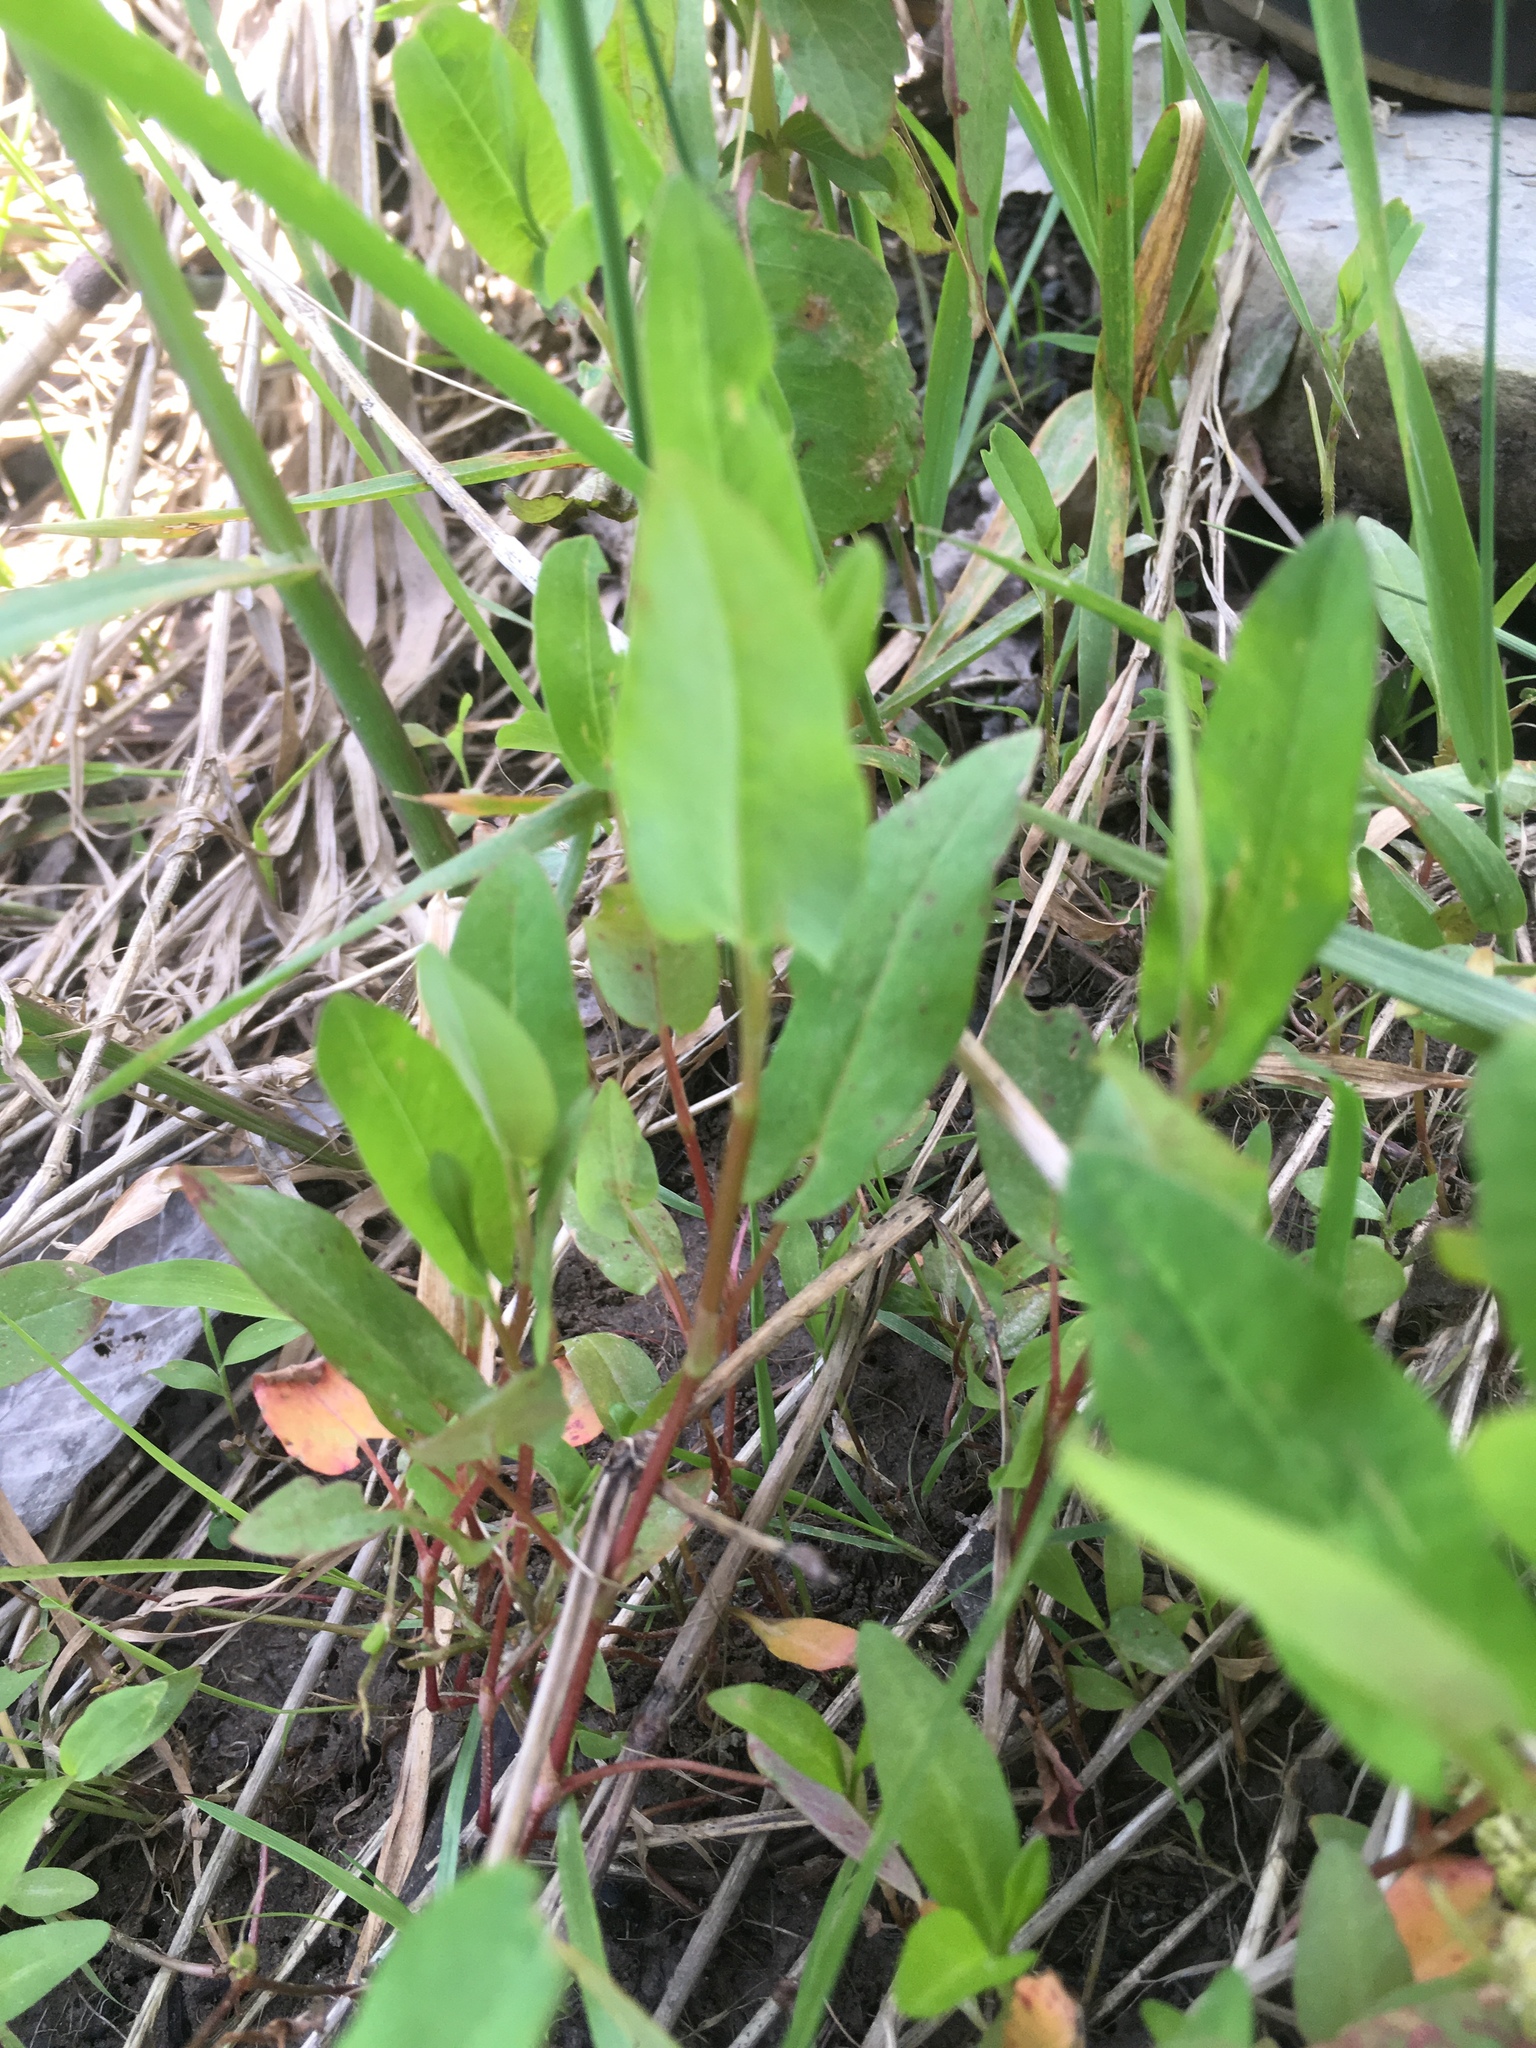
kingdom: Plantae
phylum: Tracheophyta
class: Magnoliopsida
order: Caryophyllales
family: Polygonaceae
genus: Persicaria
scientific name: Persicaria sagittata
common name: American tearthumb
